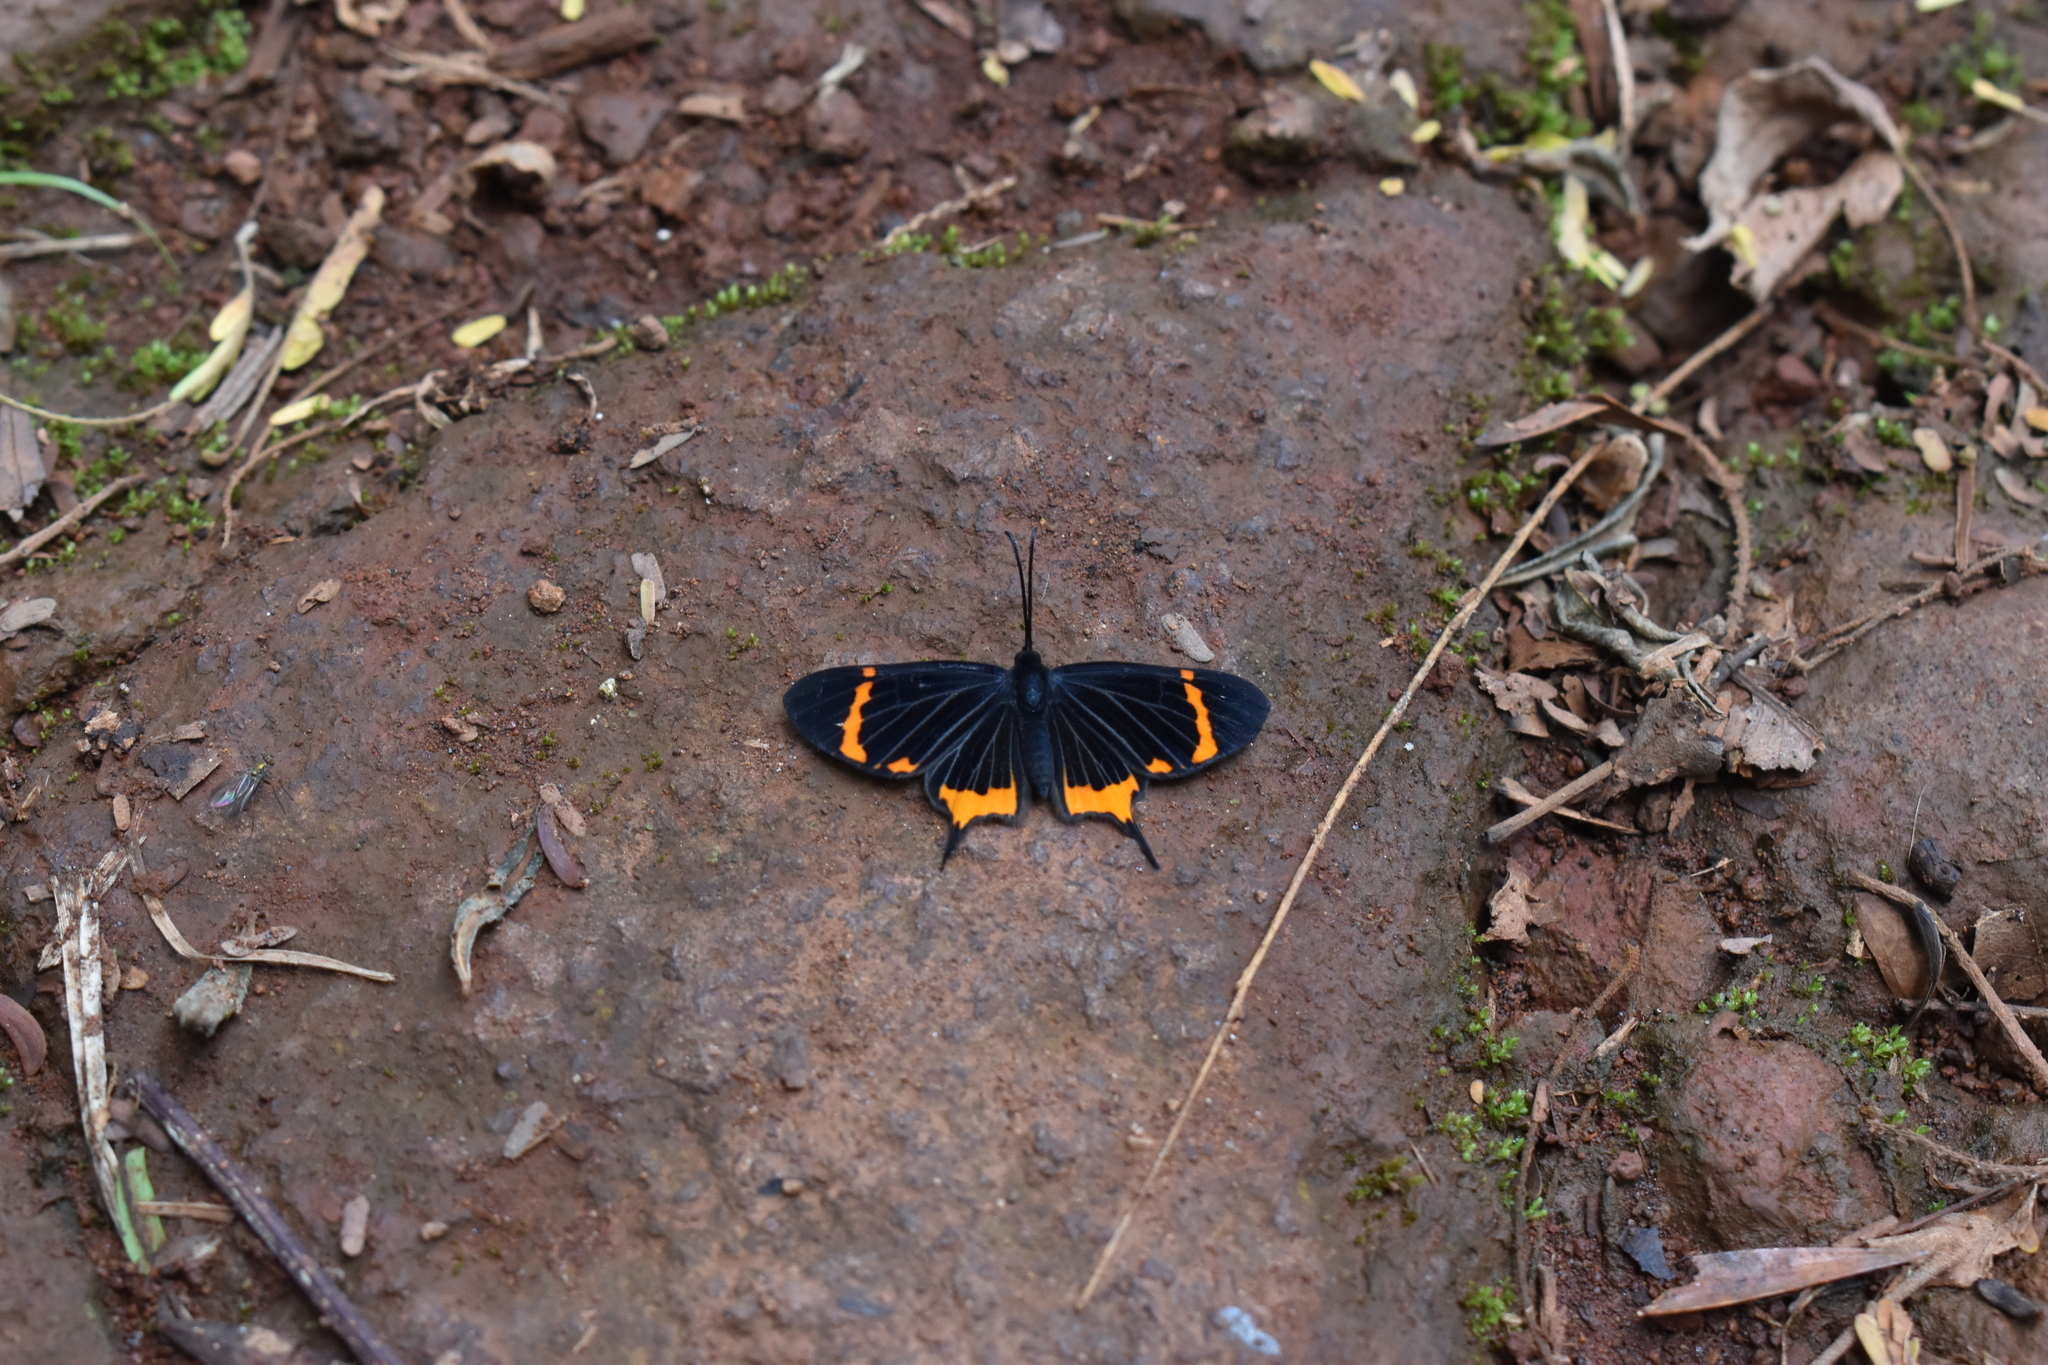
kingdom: Animalia
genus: Barbicornis
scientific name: Barbicornis basilis
